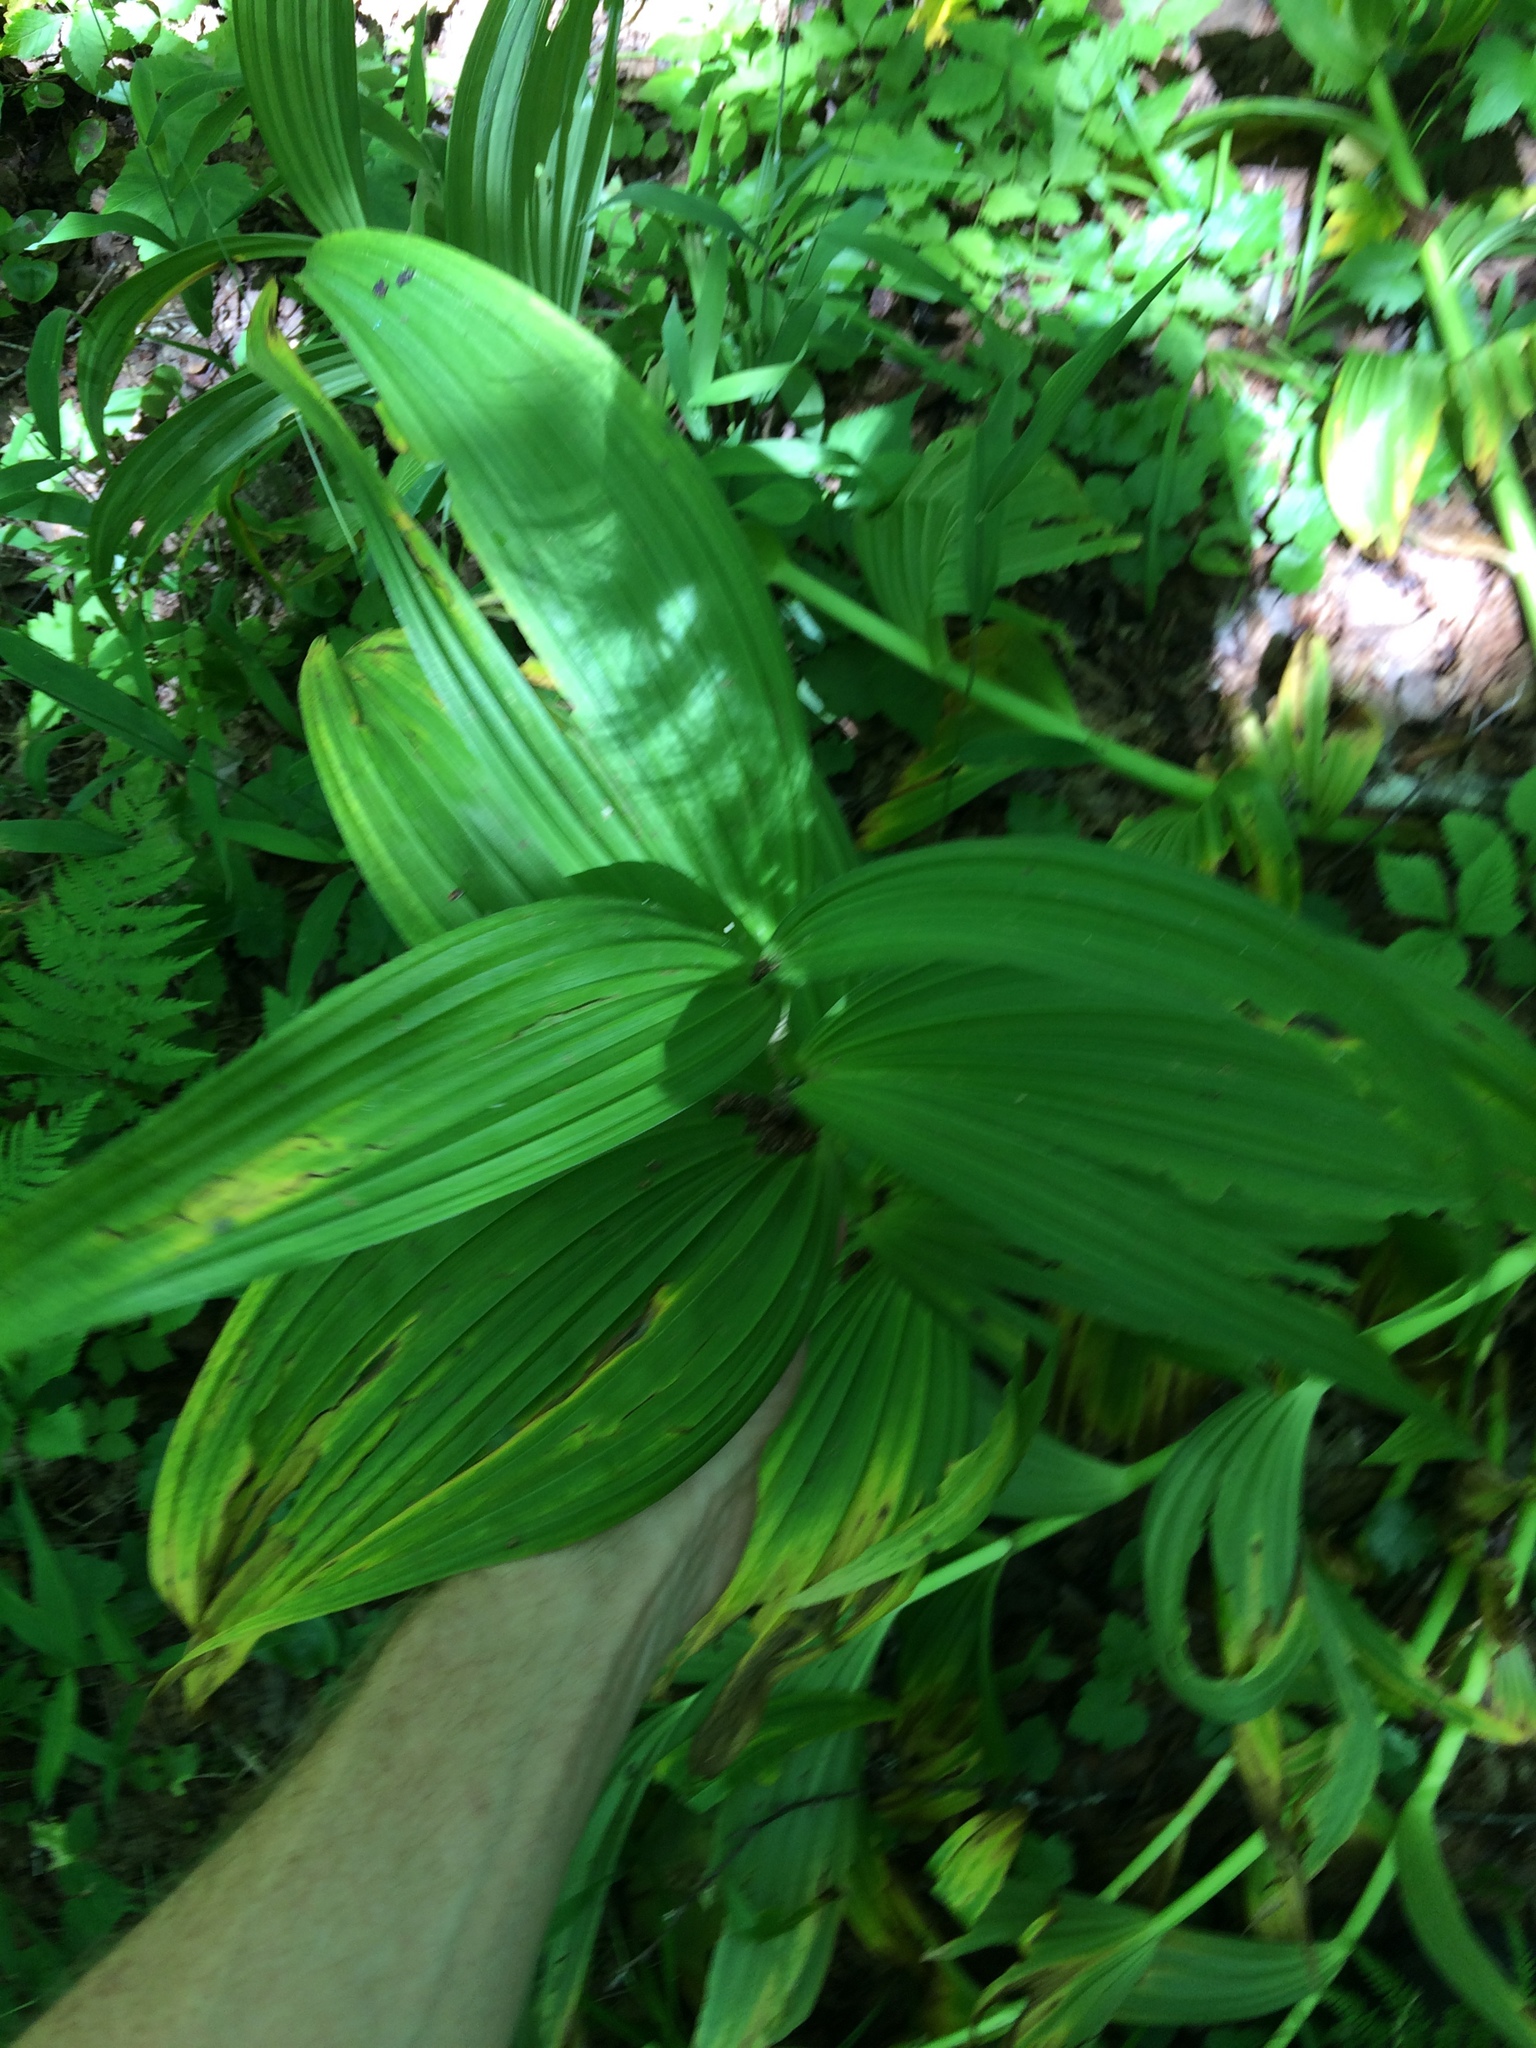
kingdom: Plantae
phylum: Tracheophyta
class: Liliopsida
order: Liliales
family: Melanthiaceae
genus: Veratrum
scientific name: Veratrum viride
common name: American false hellebore
